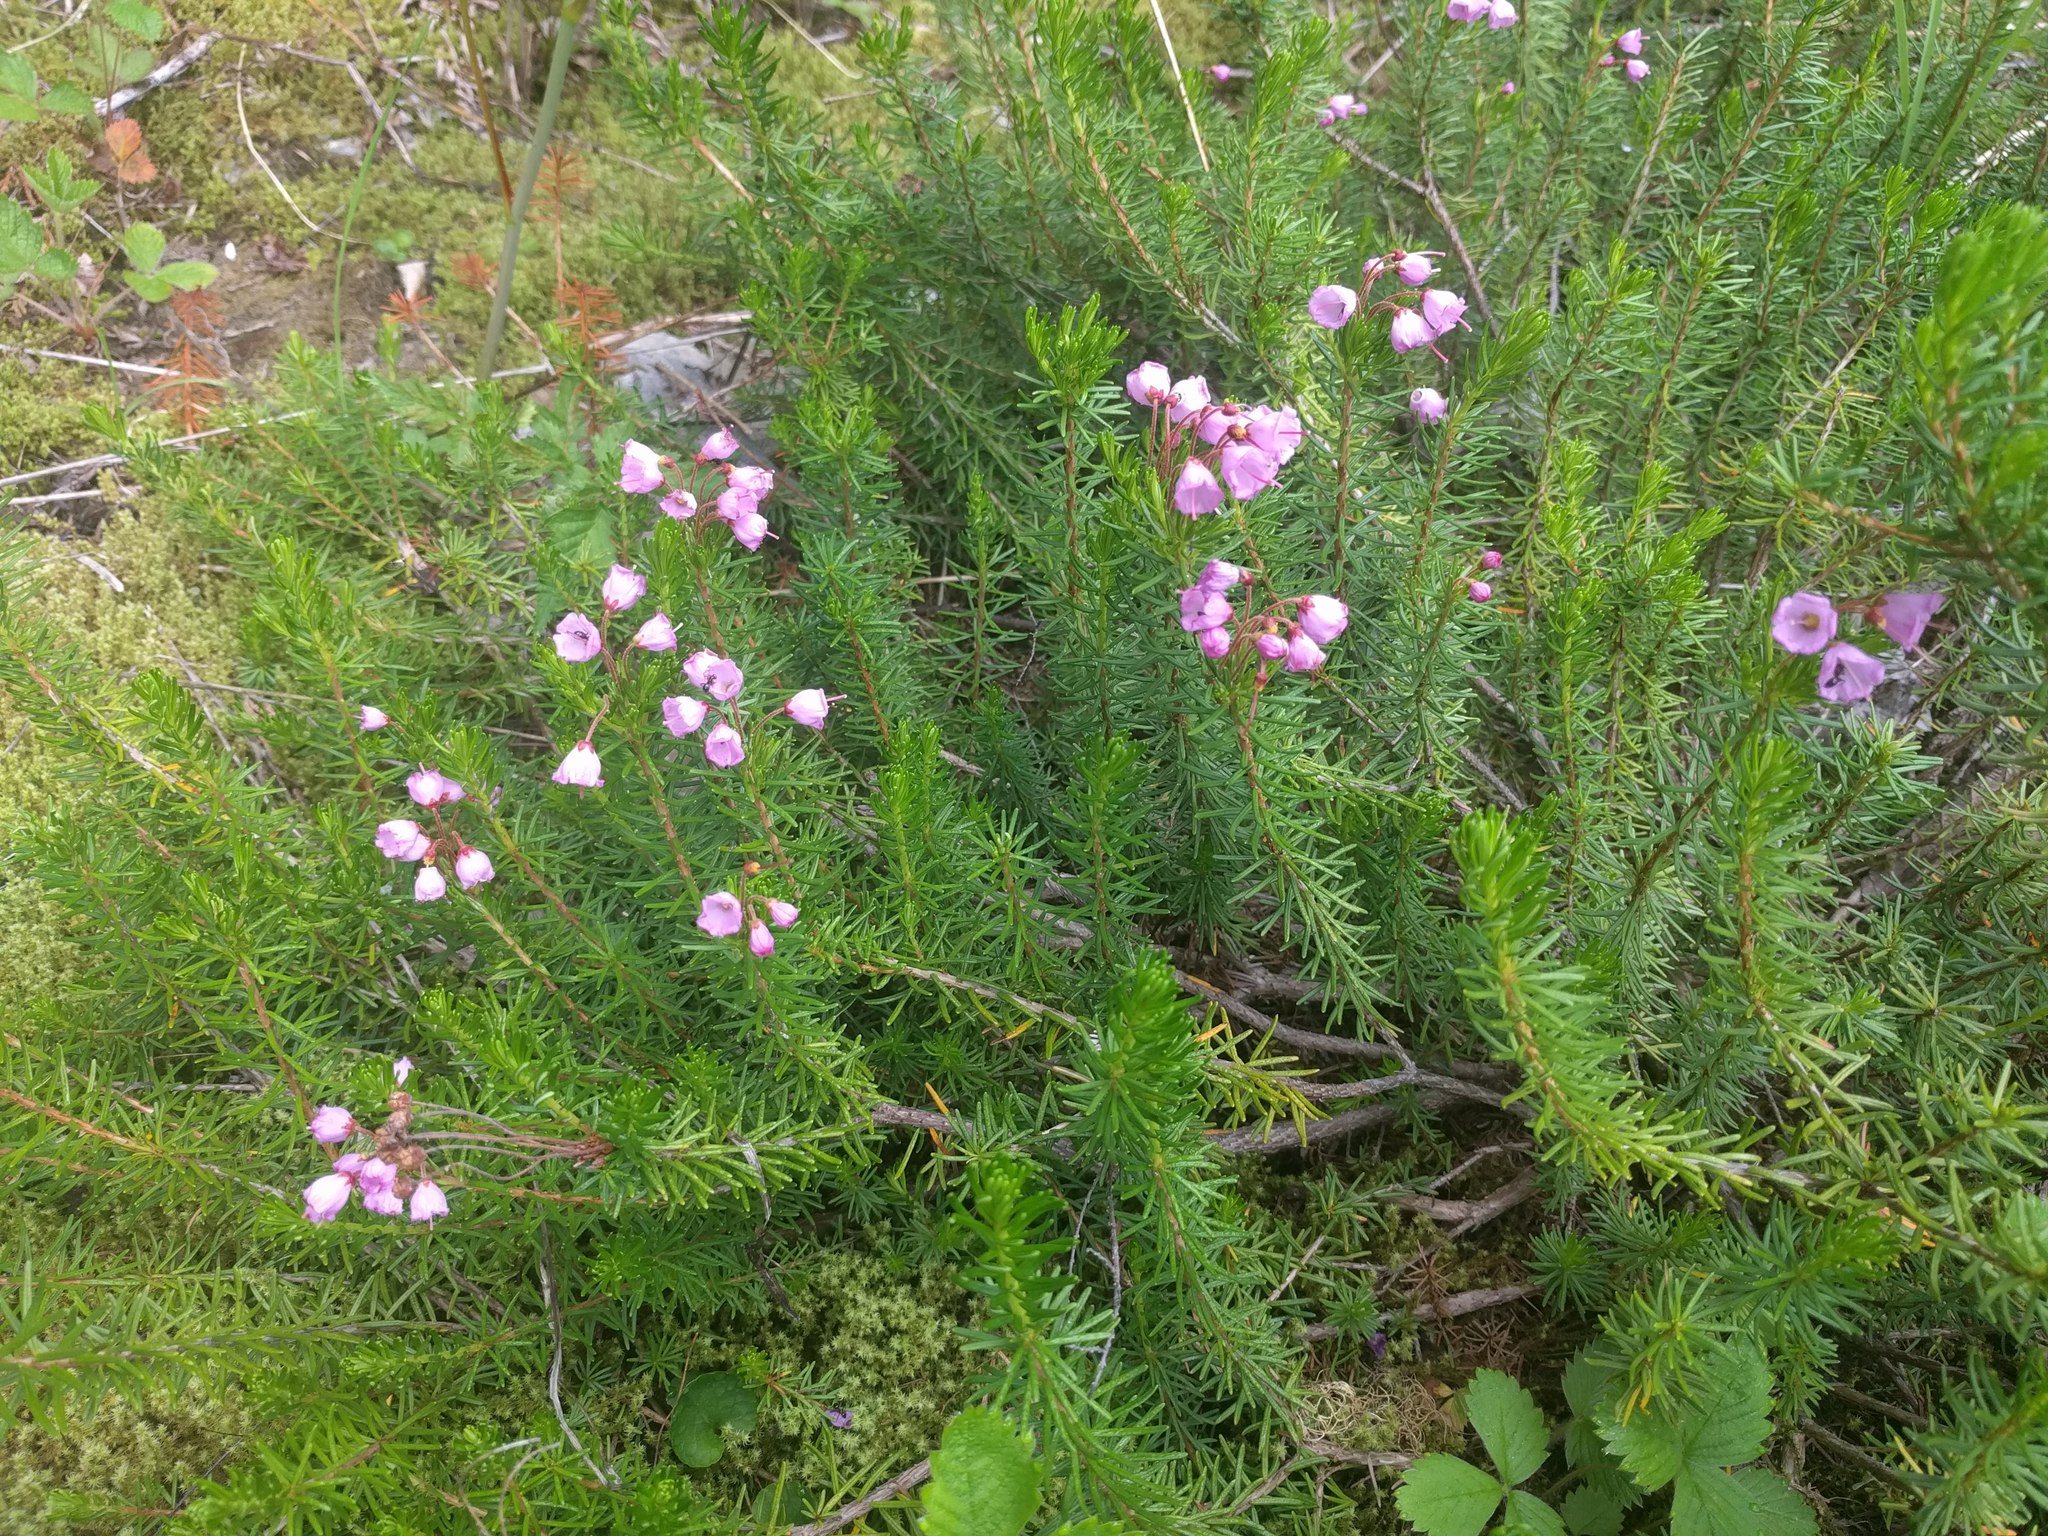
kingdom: Plantae
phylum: Tracheophyta
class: Magnoliopsida
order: Ericales
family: Ericaceae
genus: Phyllodoce
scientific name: Phyllodoce empetriformis
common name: Pink mountain heather
